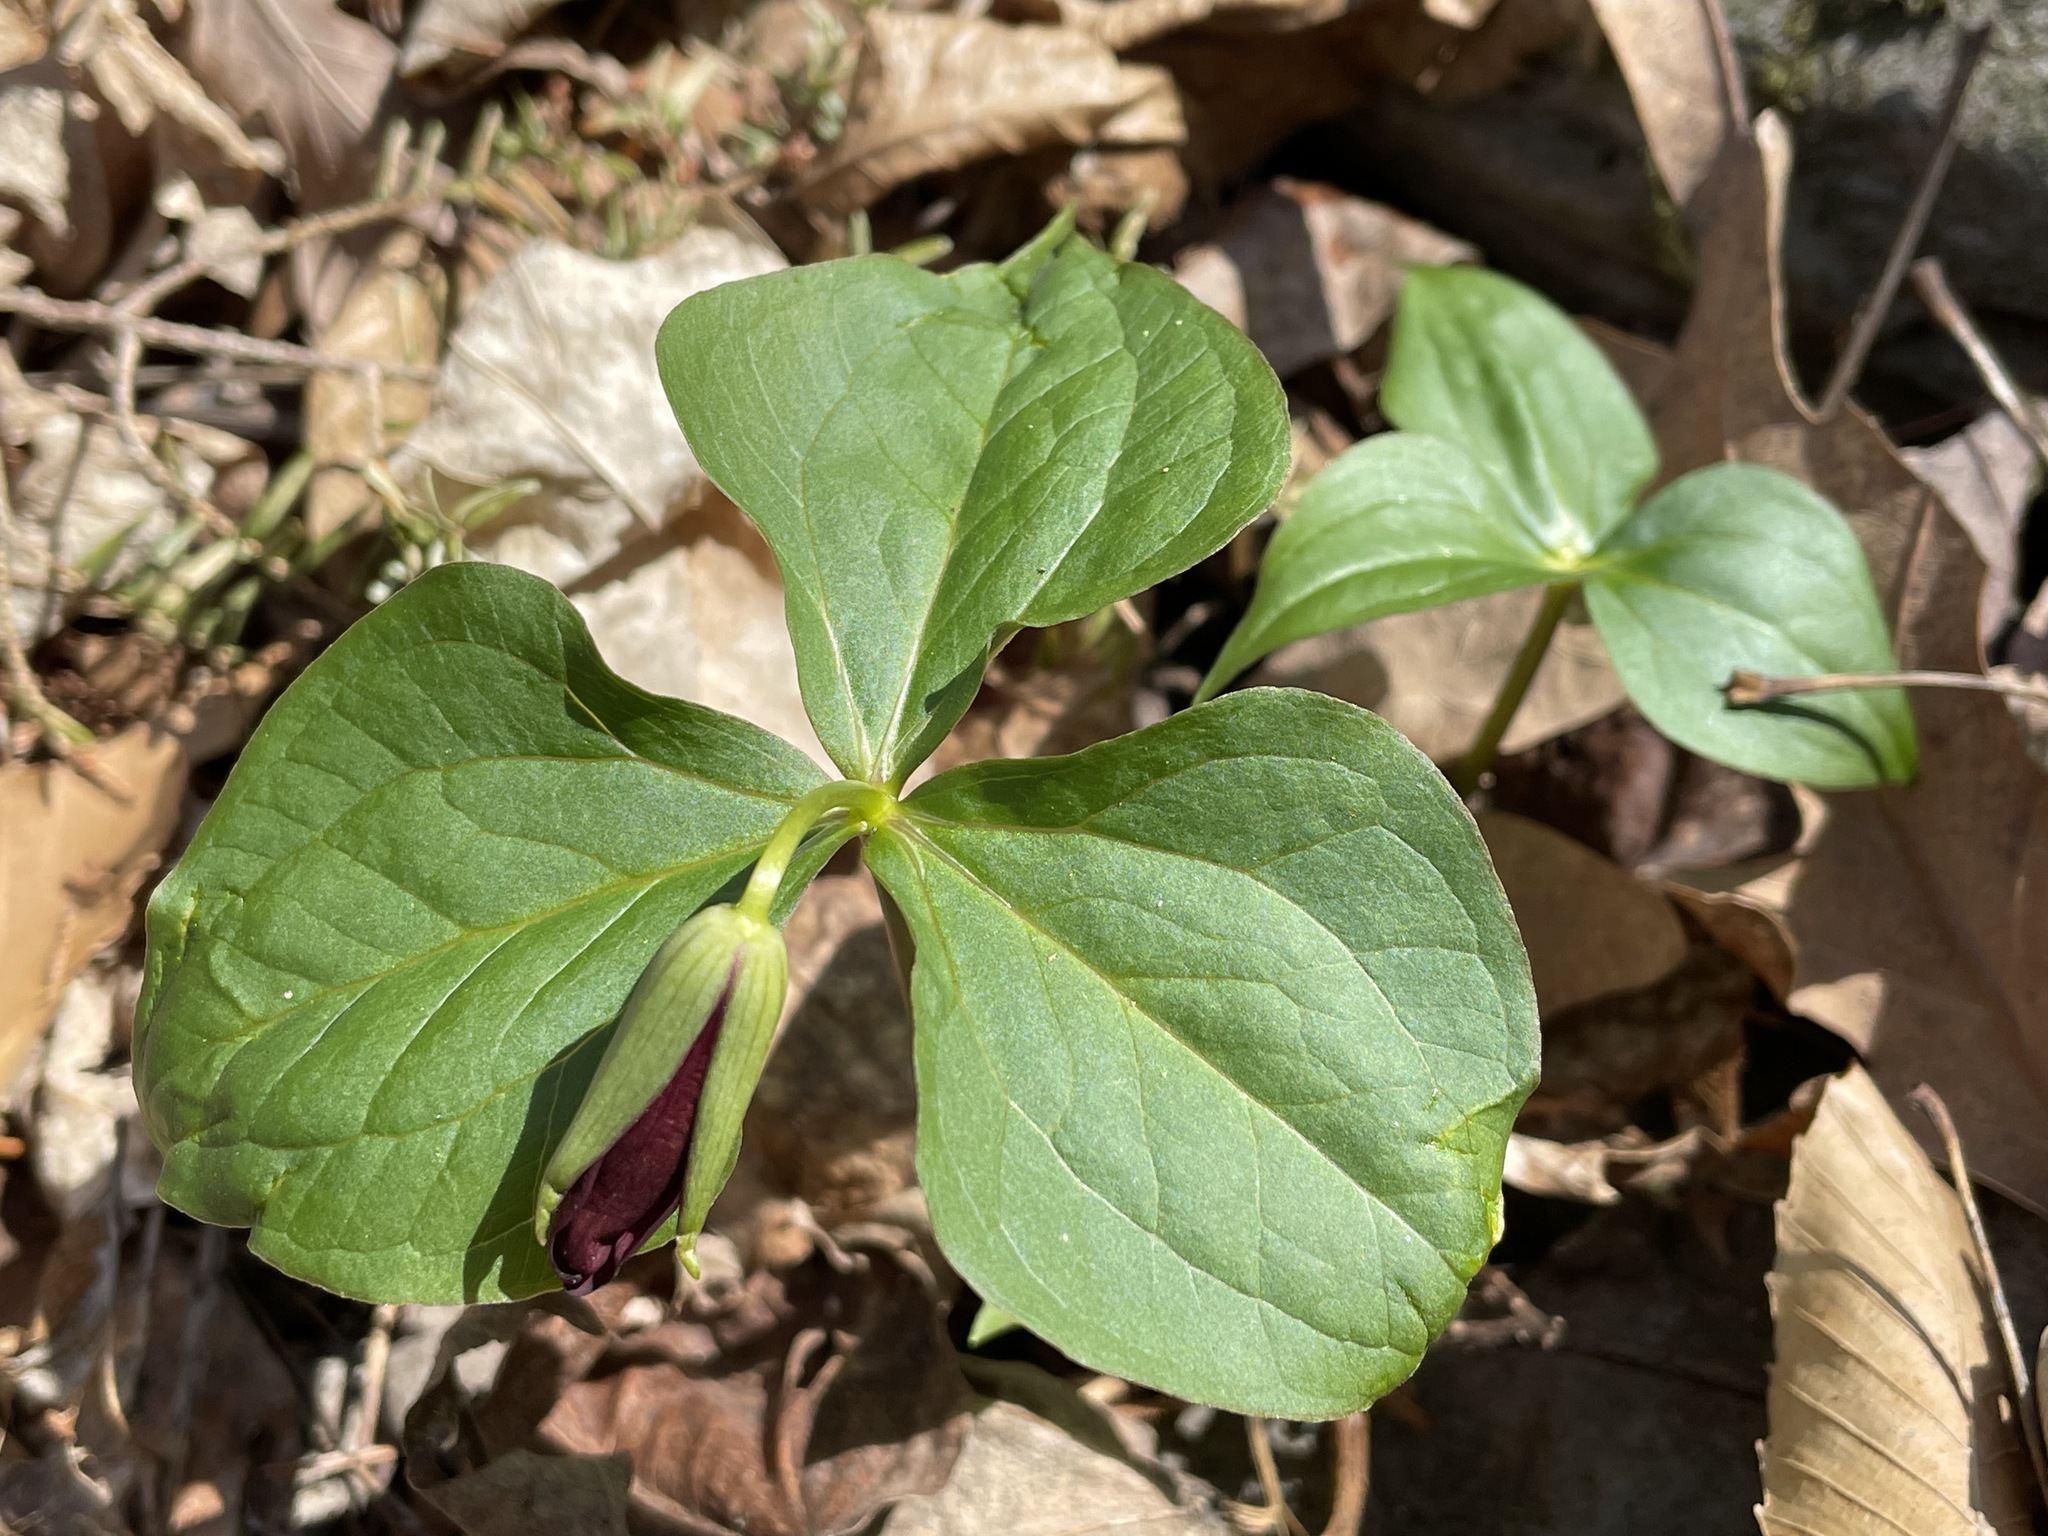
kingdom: Plantae
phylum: Tracheophyta
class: Liliopsida
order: Liliales
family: Melanthiaceae
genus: Trillium
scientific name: Trillium erectum
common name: Purple trillium
